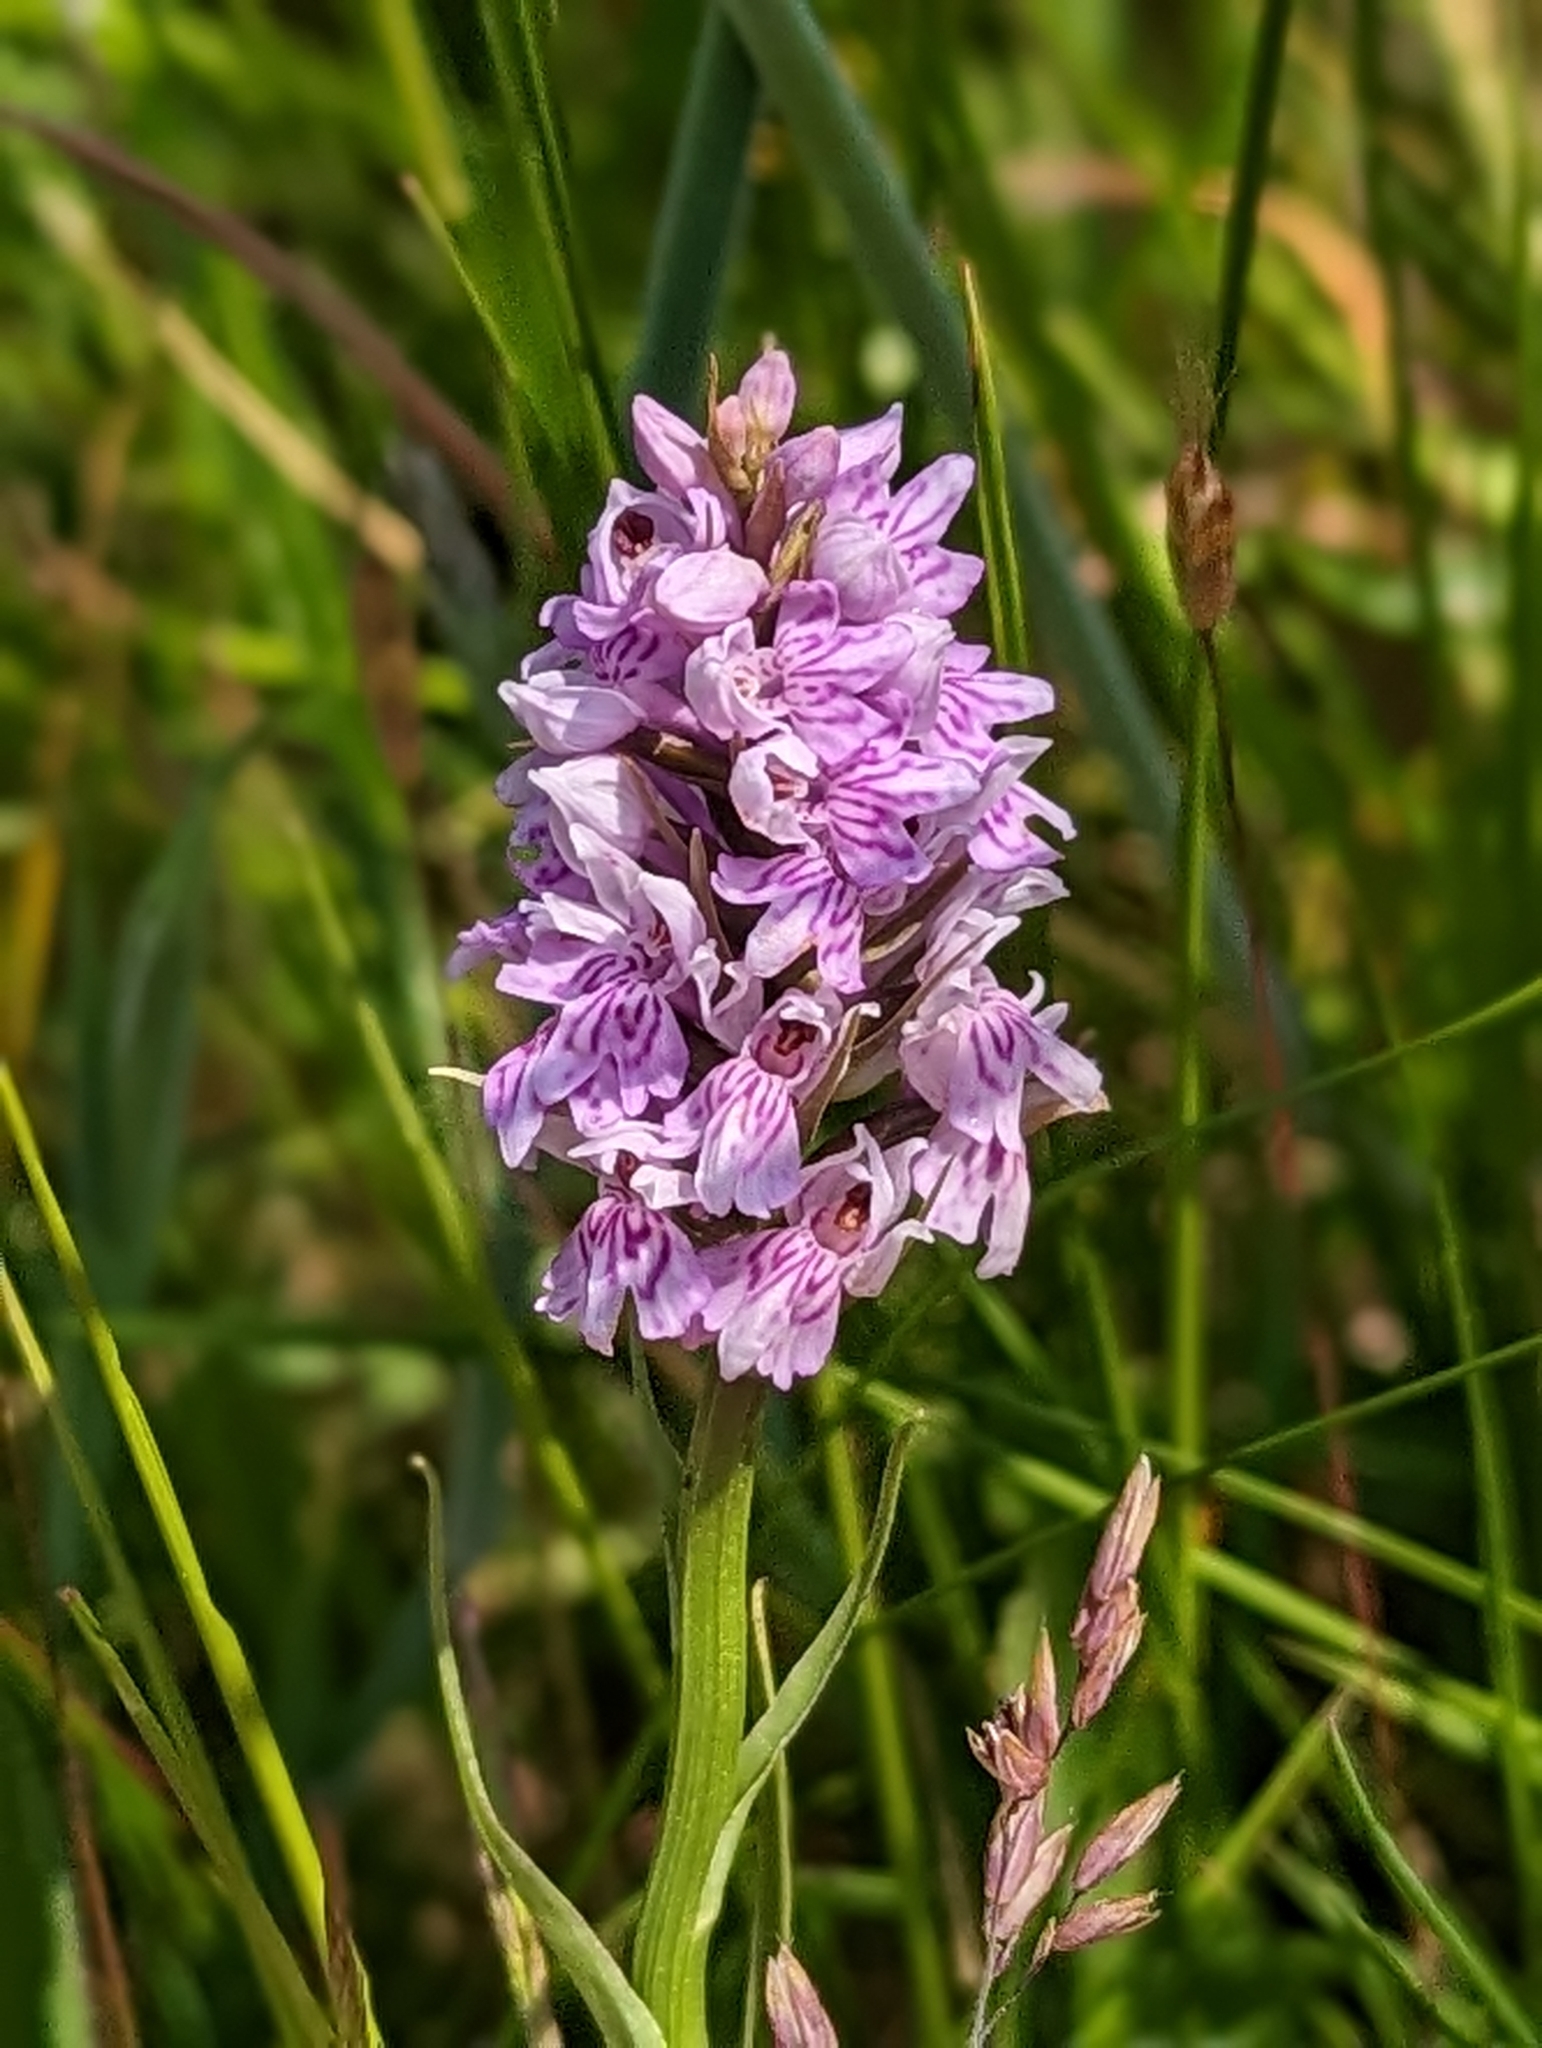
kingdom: Plantae
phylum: Tracheophyta
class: Liliopsida
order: Asparagales
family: Orchidaceae
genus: Dactylorhiza
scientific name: Dactylorhiza maculata
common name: Heath spotted-orchid
